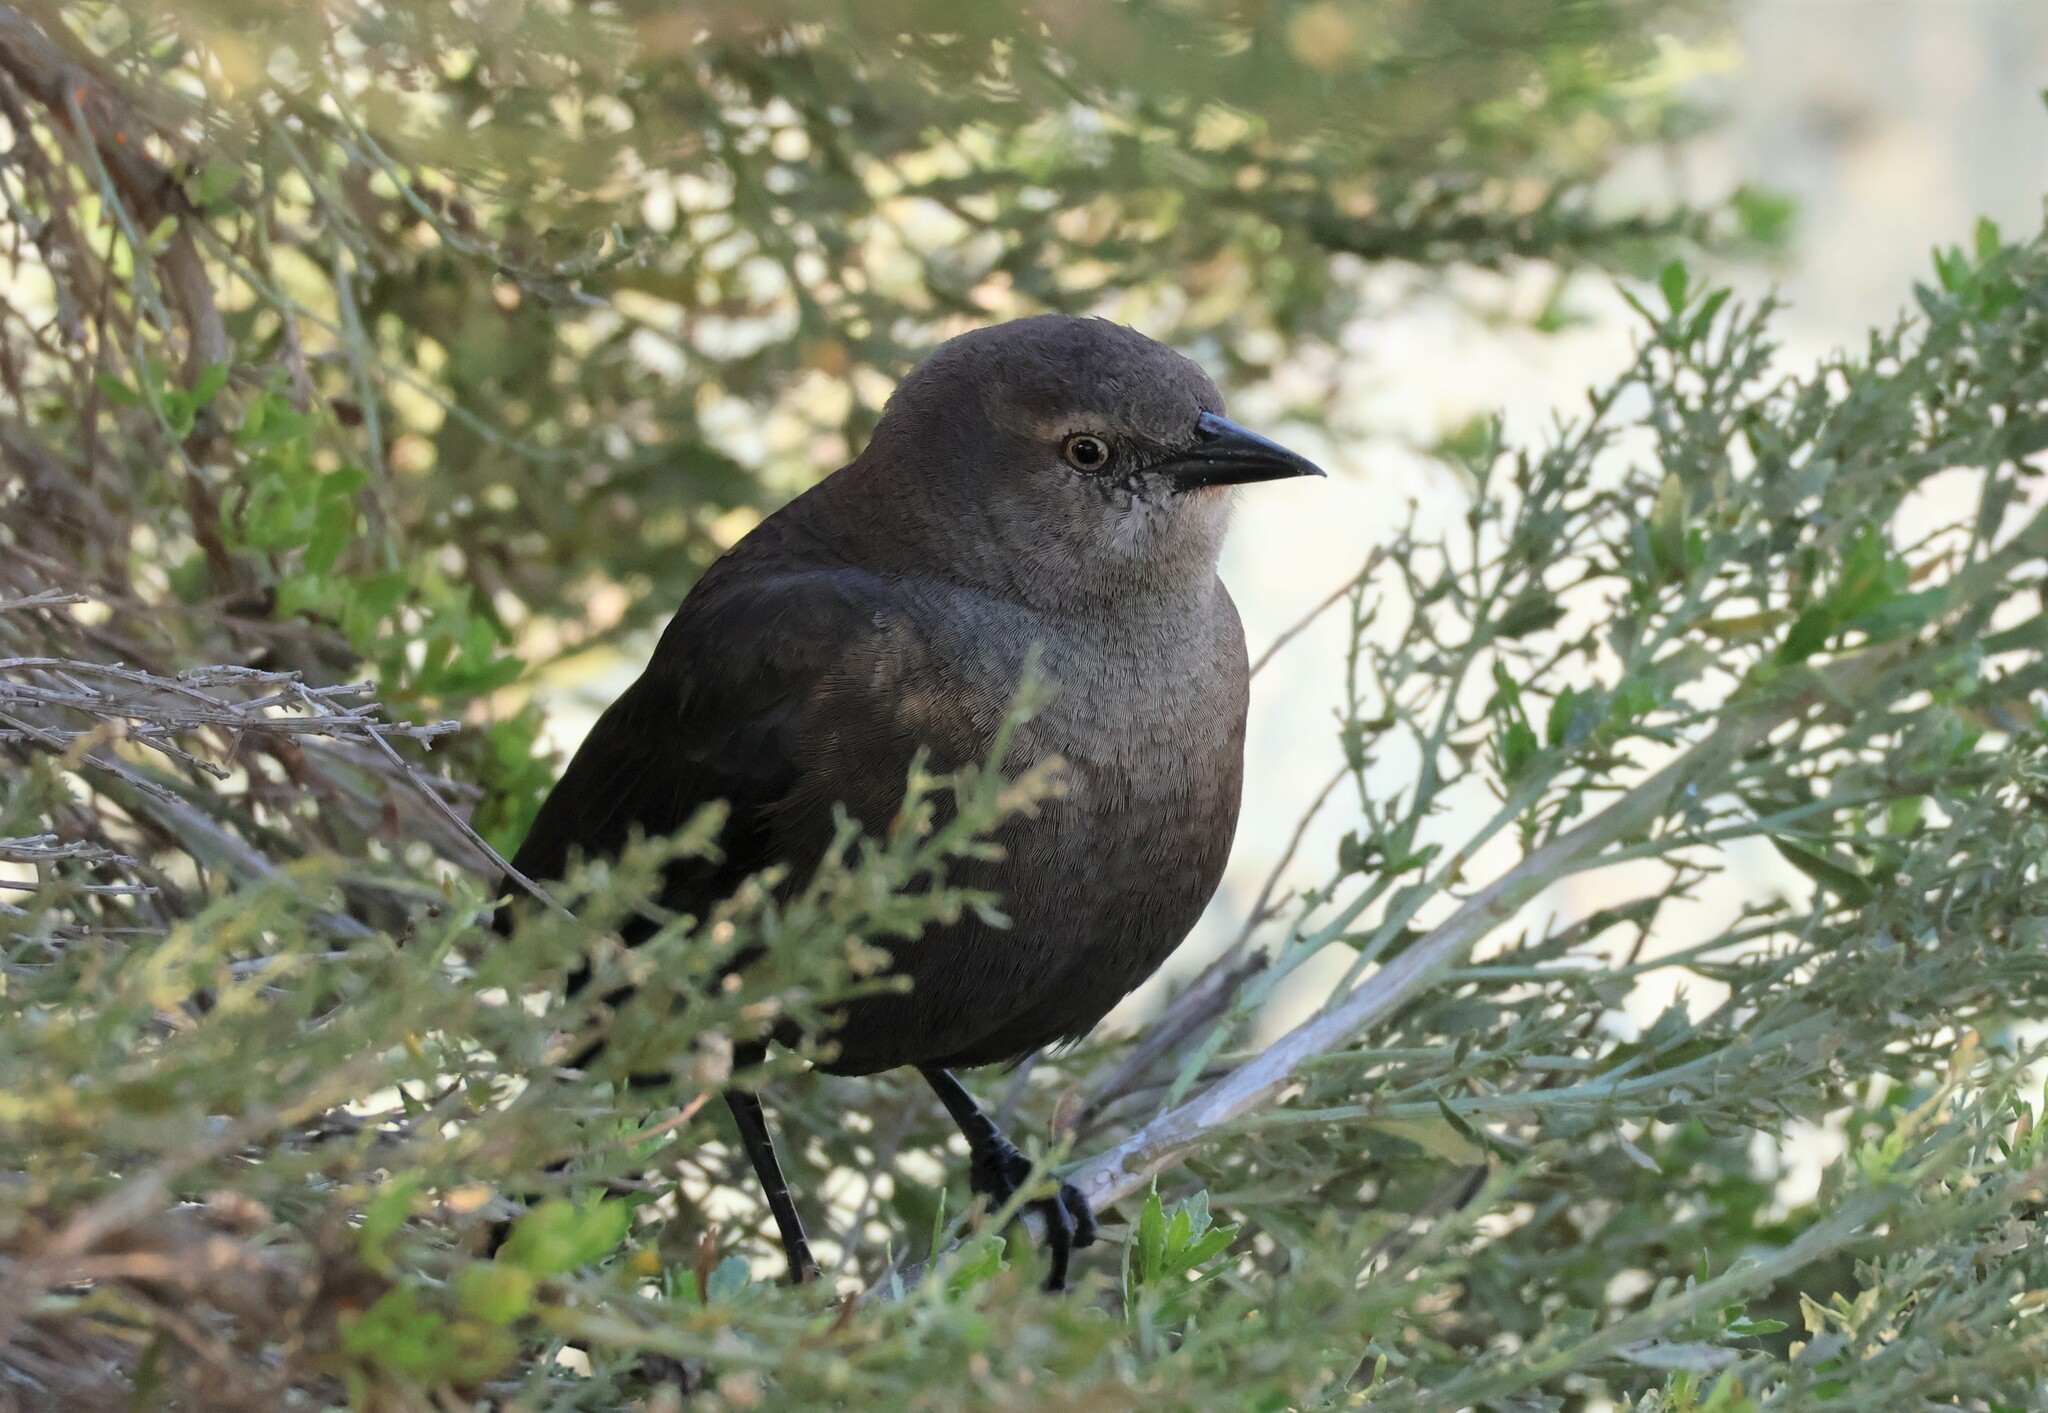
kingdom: Animalia
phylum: Chordata
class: Aves
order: Passeriformes
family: Icteridae
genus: Euphagus
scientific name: Euphagus cyanocephalus
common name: Brewer's blackbird
